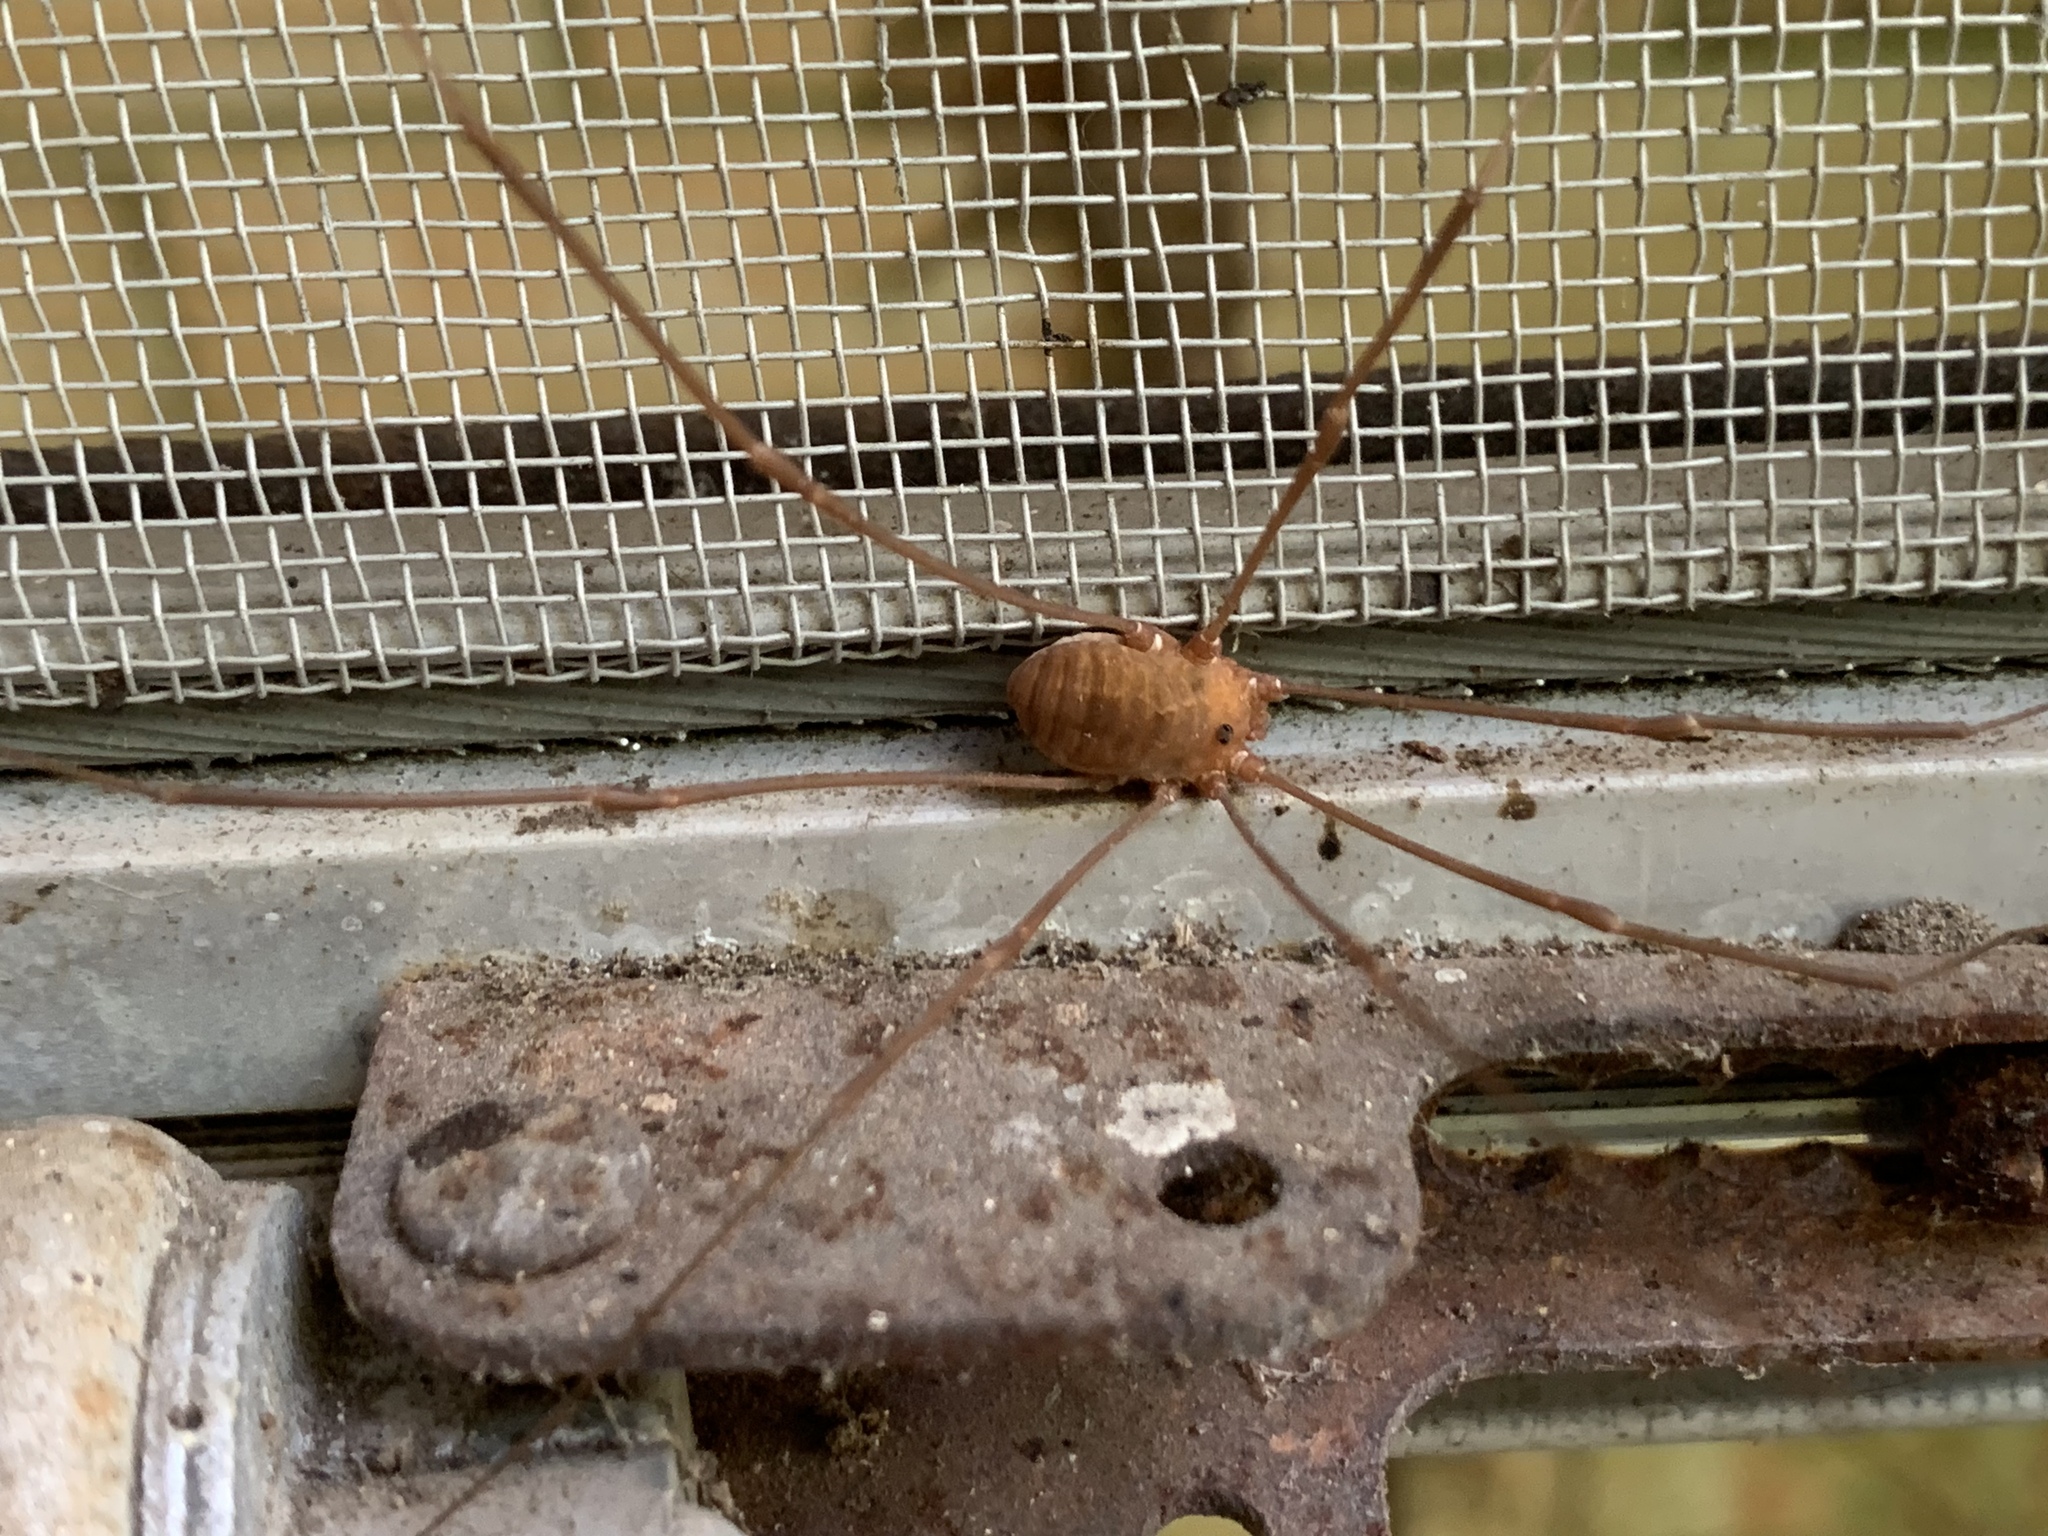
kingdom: Animalia
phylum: Arthropoda
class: Arachnida
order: Opiliones
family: Sclerosomatidae
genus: Leiobunum
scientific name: Leiobunum flavum
